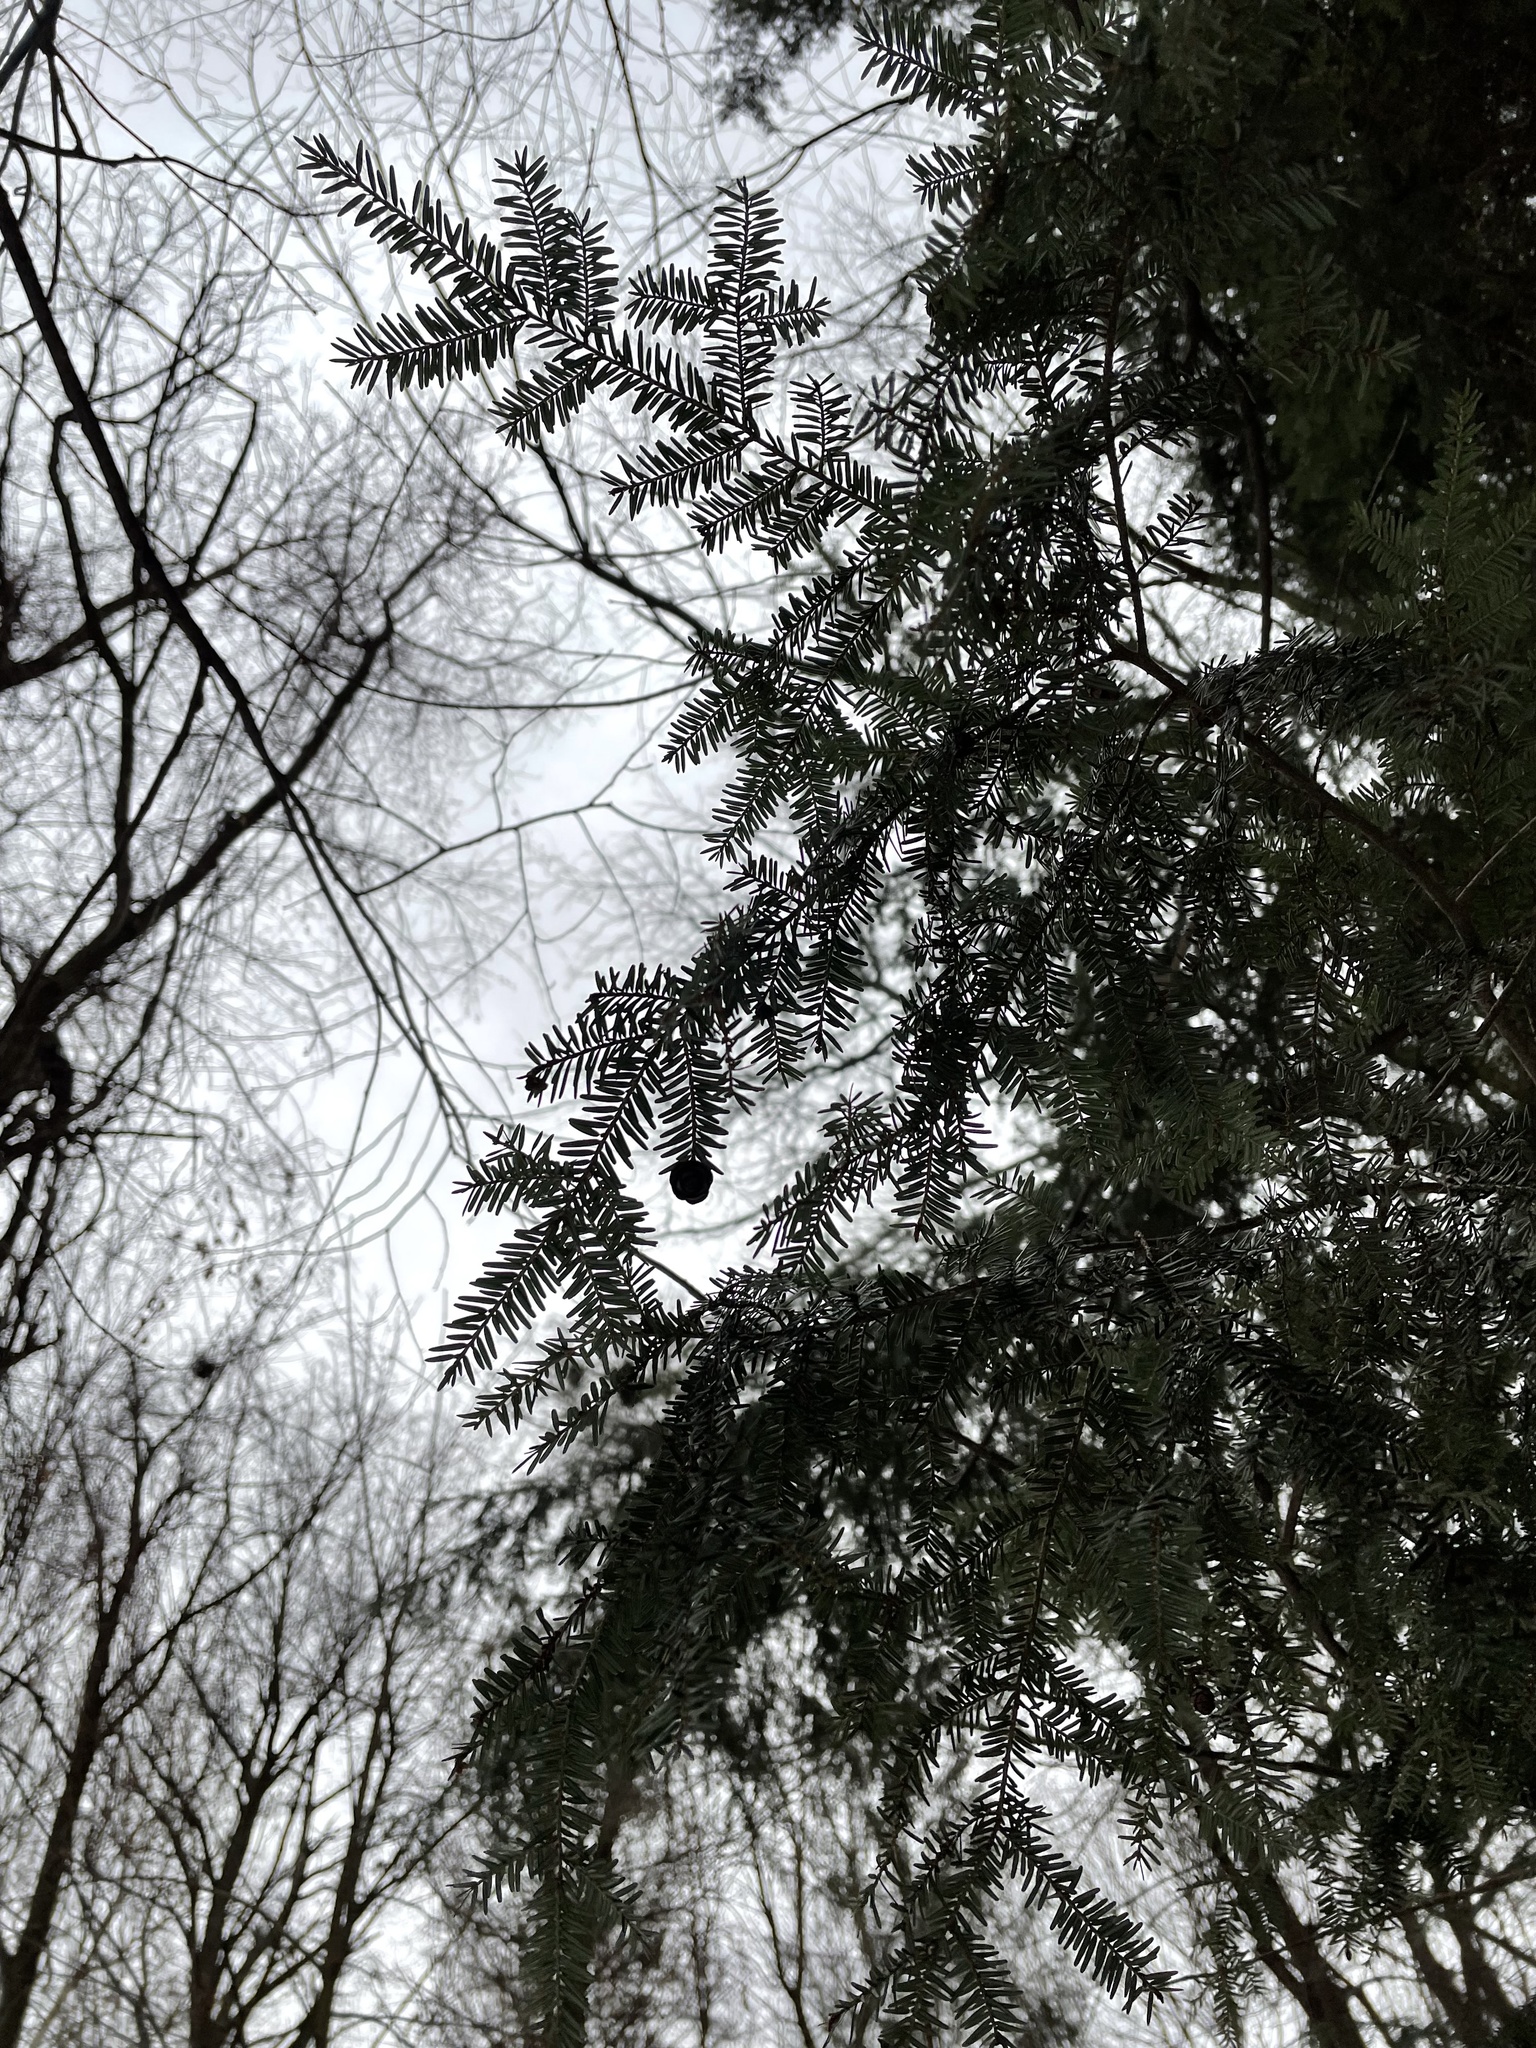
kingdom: Plantae
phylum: Tracheophyta
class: Pinopsida
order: Pinales
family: Pinaceae
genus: Tsuga
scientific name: Tsuga canadensis
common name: Eastern hemlock
